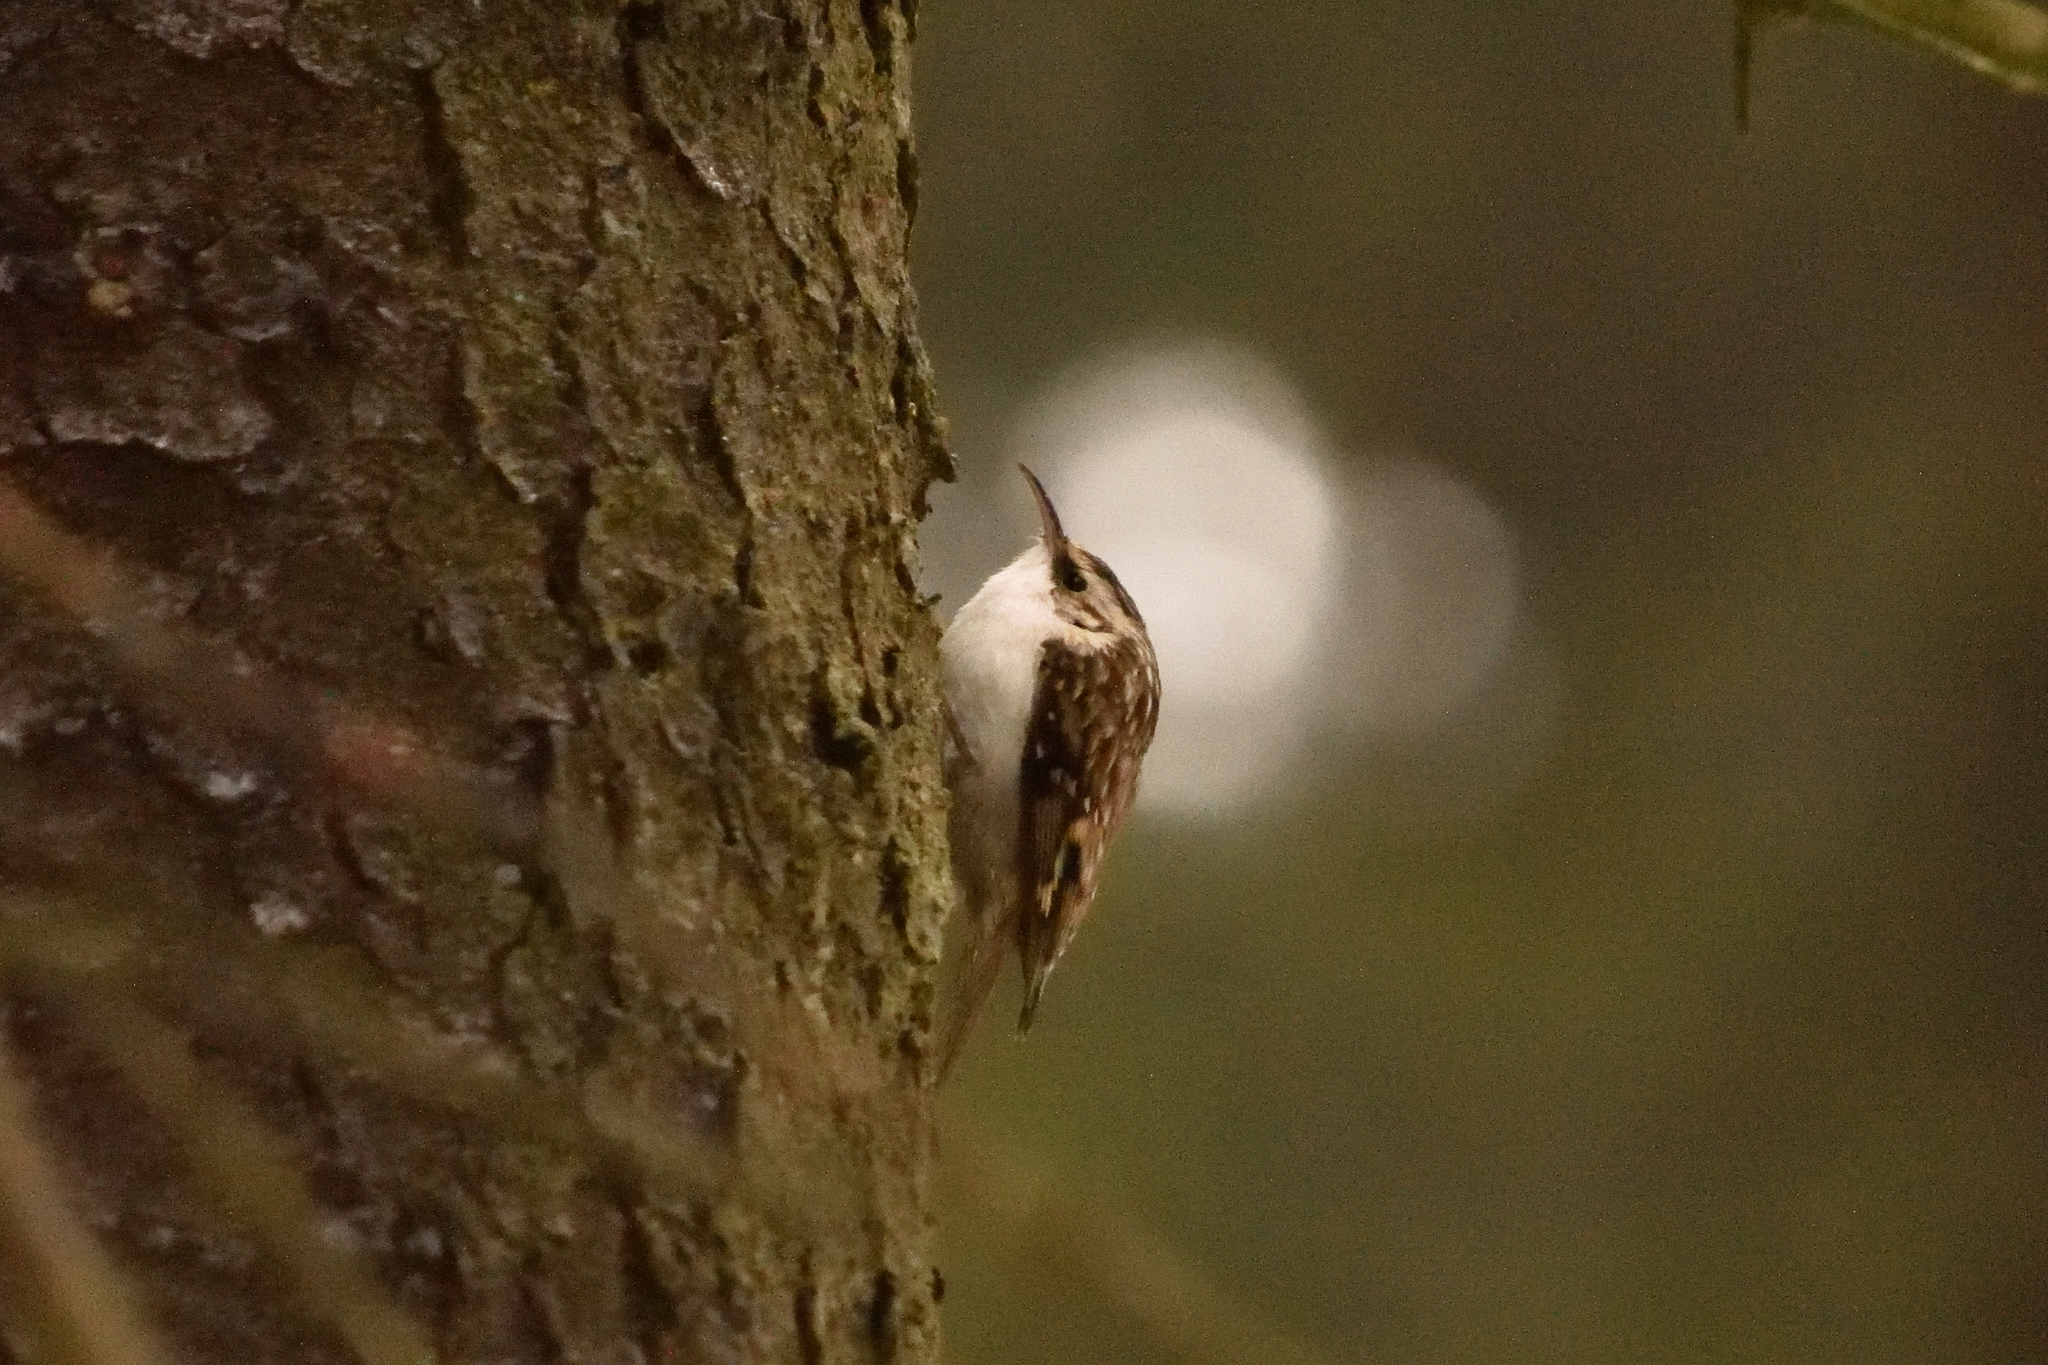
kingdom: Animalia
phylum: Chordata
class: Aves
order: Passeriformes
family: Certhiidae
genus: Certhia
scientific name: Certhia brachydactyla
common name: Short-toed treecreeper
